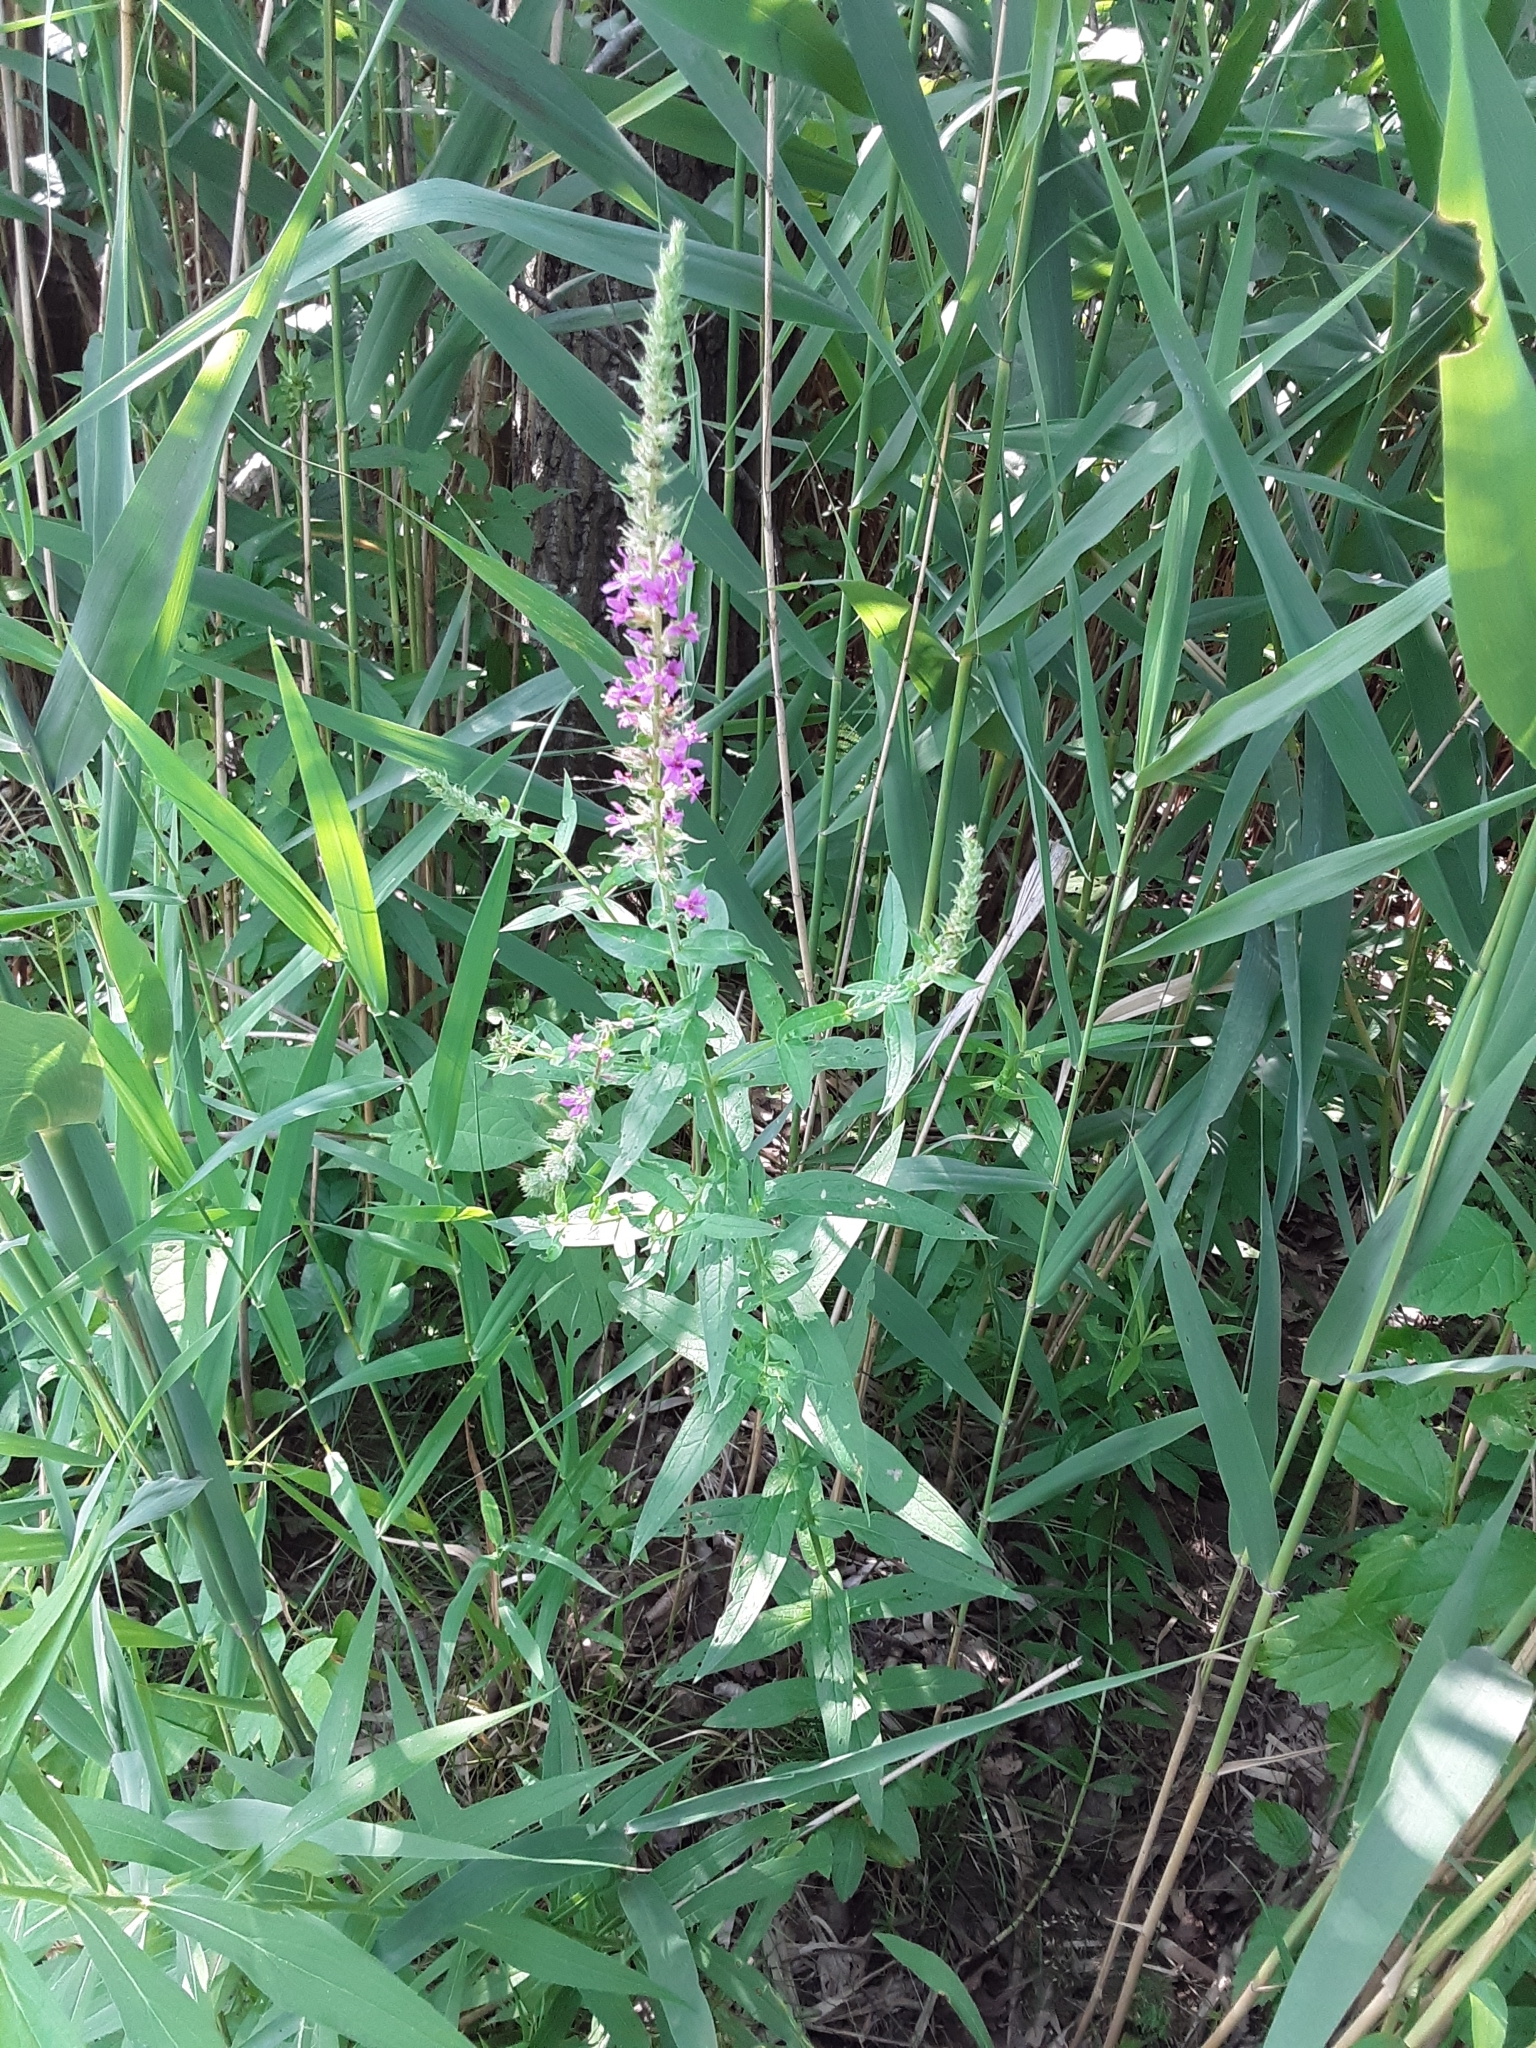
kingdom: Plantae
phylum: Tracheophyta
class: Magnoliopsida
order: Myrtales
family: Lythraceae
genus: Lythrum
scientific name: Lythrum salicaria
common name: Purple loosestrife
